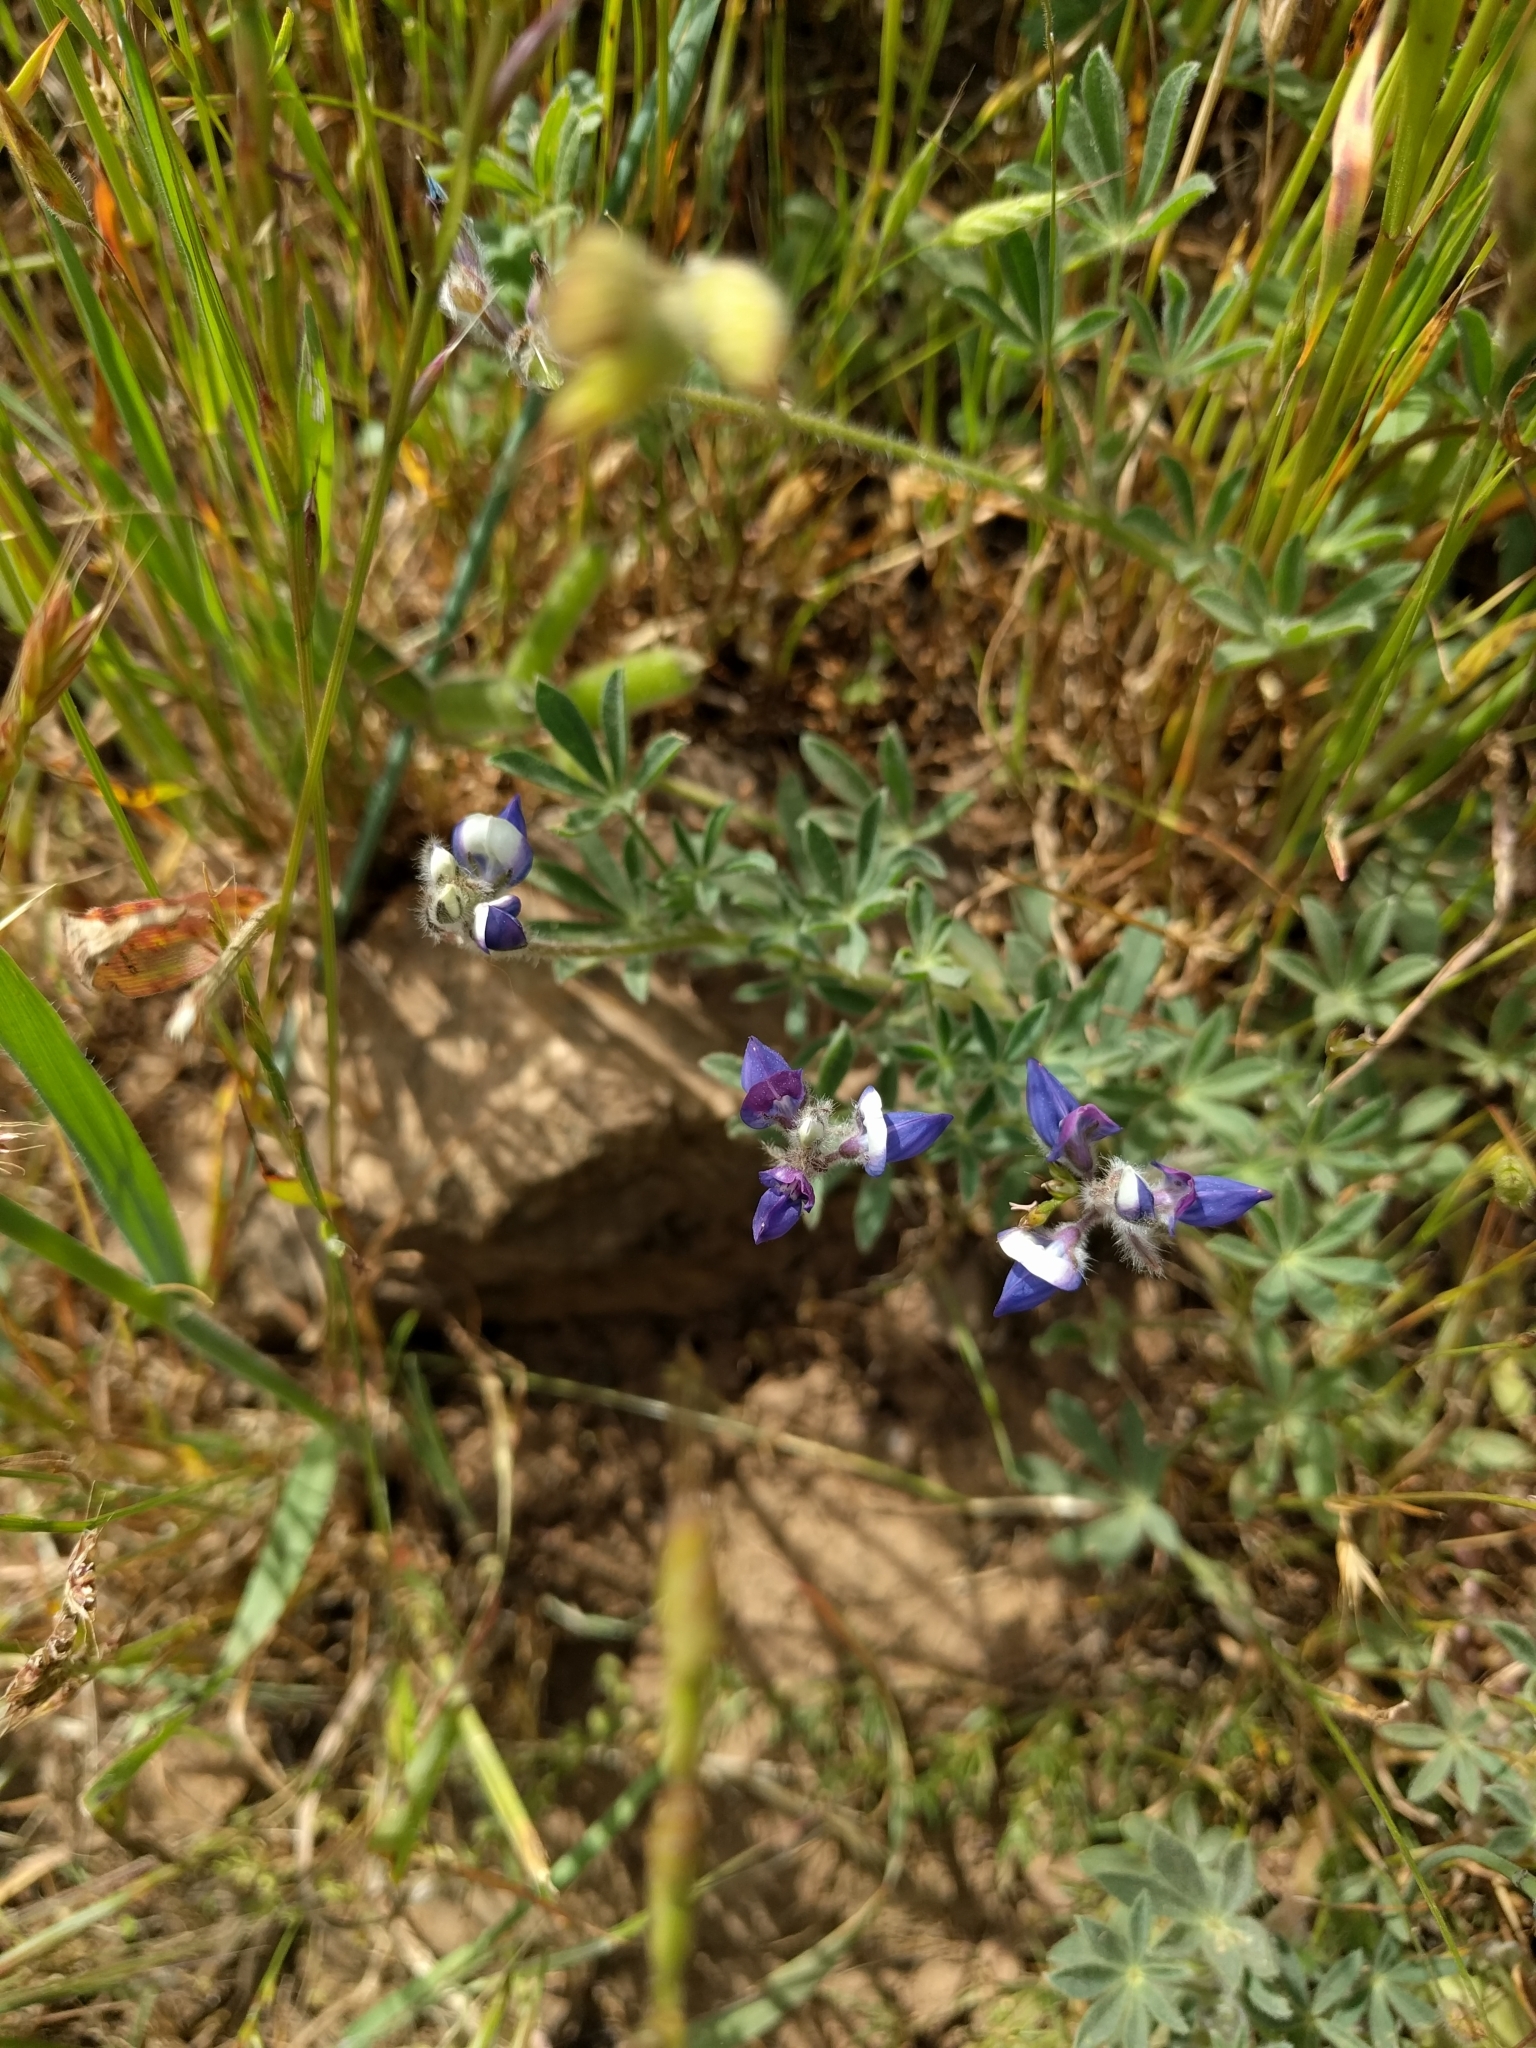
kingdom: Plantae
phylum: Tracheophyta
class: Magnoliopsida
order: Fabales
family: Fabaceae
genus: Lupinus
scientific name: Lupinus bicolor
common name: Miniature lupine
